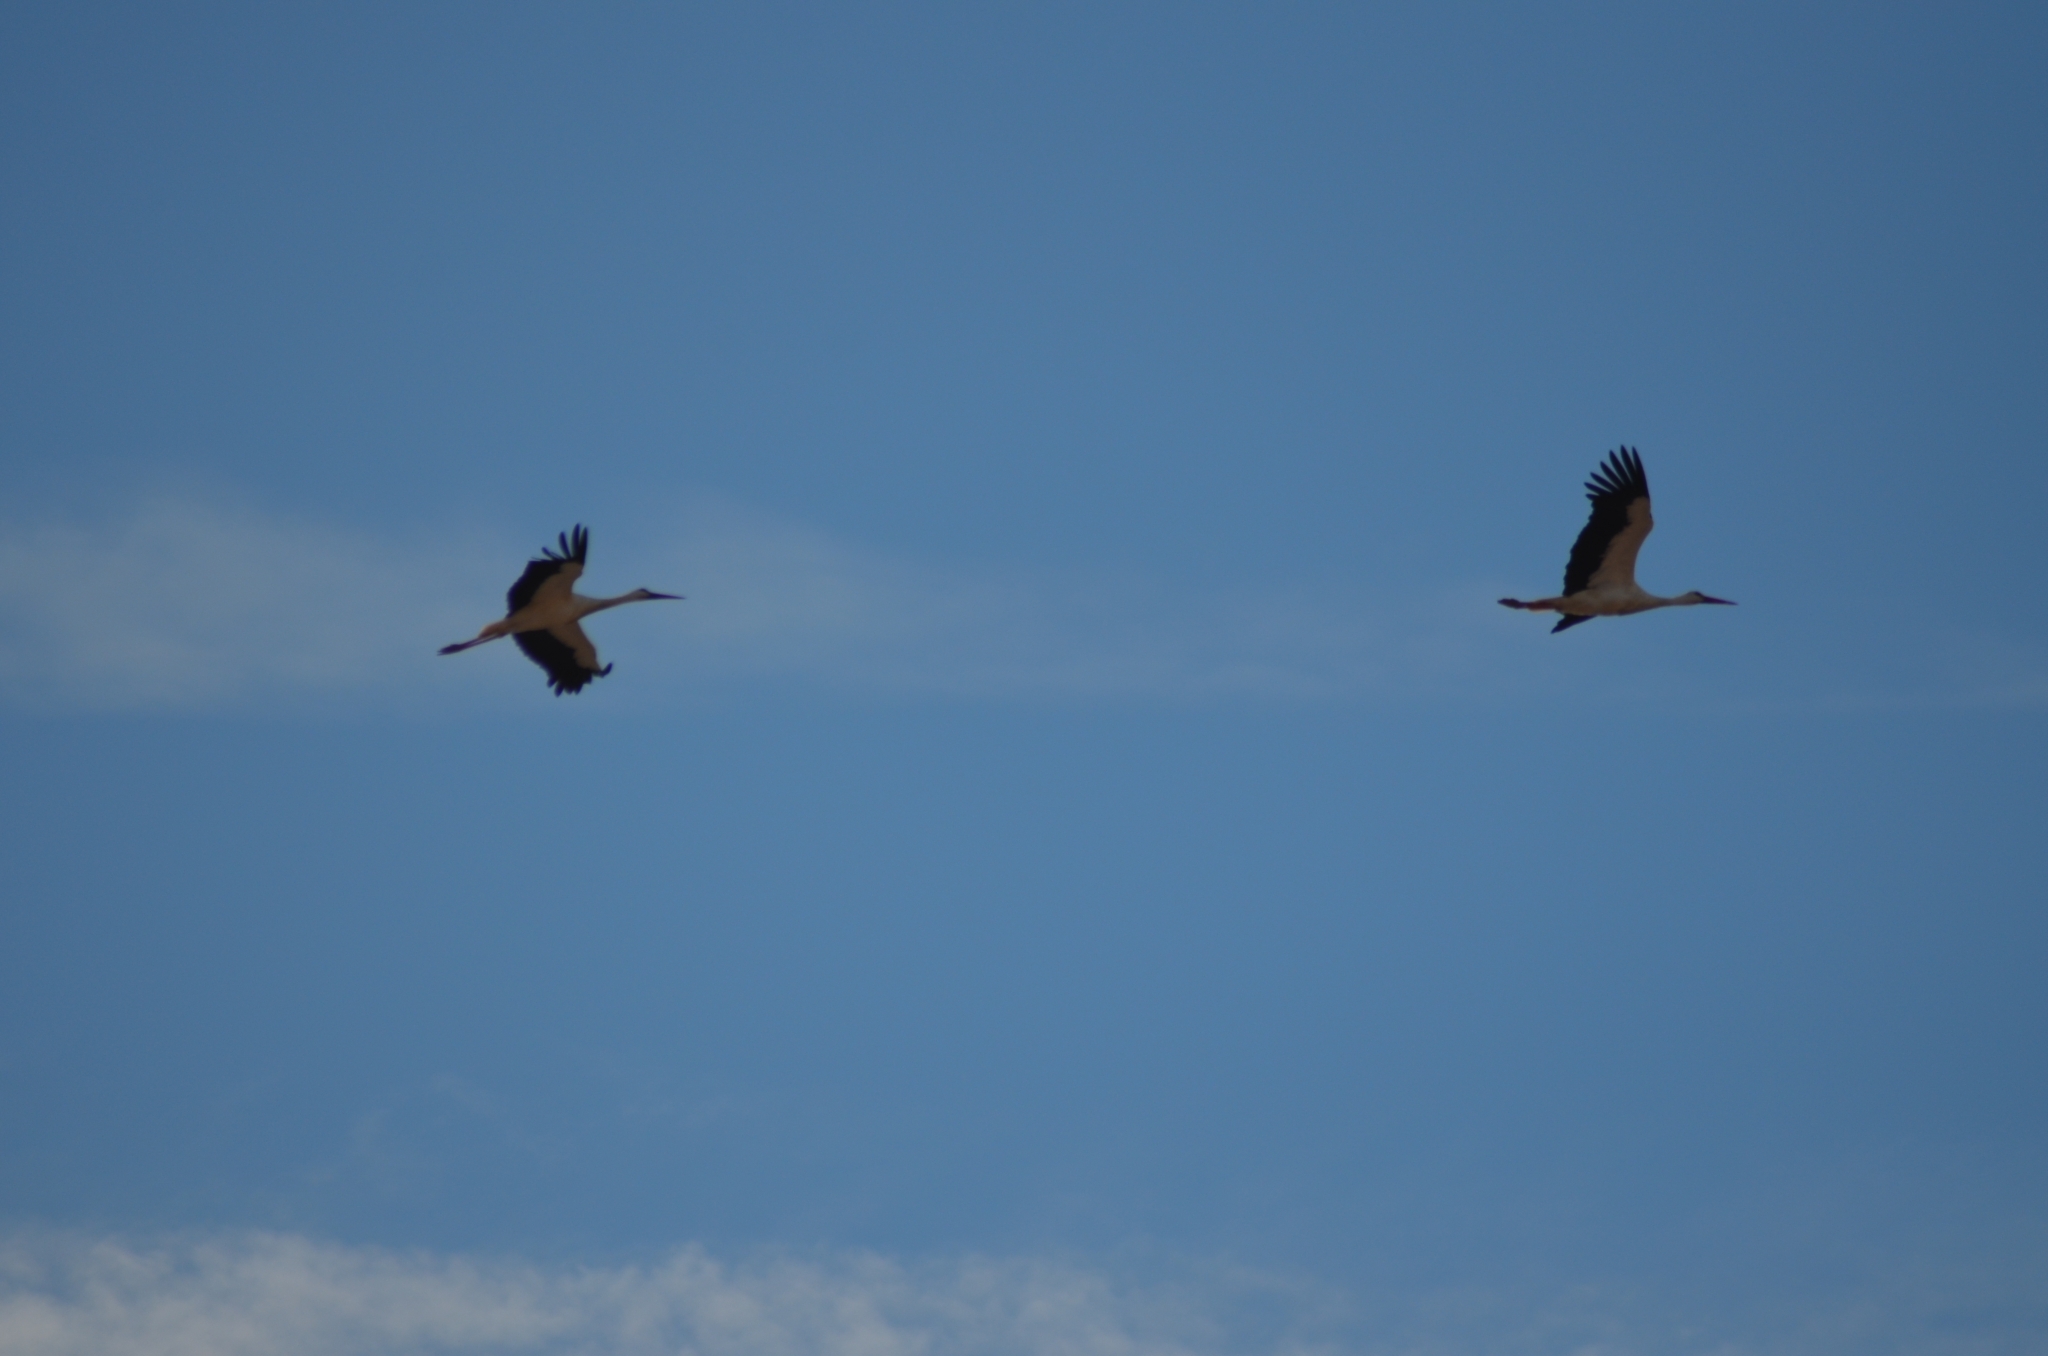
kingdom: Animalia
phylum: Chordata
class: Aves
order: Ciconiiformes
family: Ciconiidae
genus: Ciconia
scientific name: Ciconia ciconia
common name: White stork
